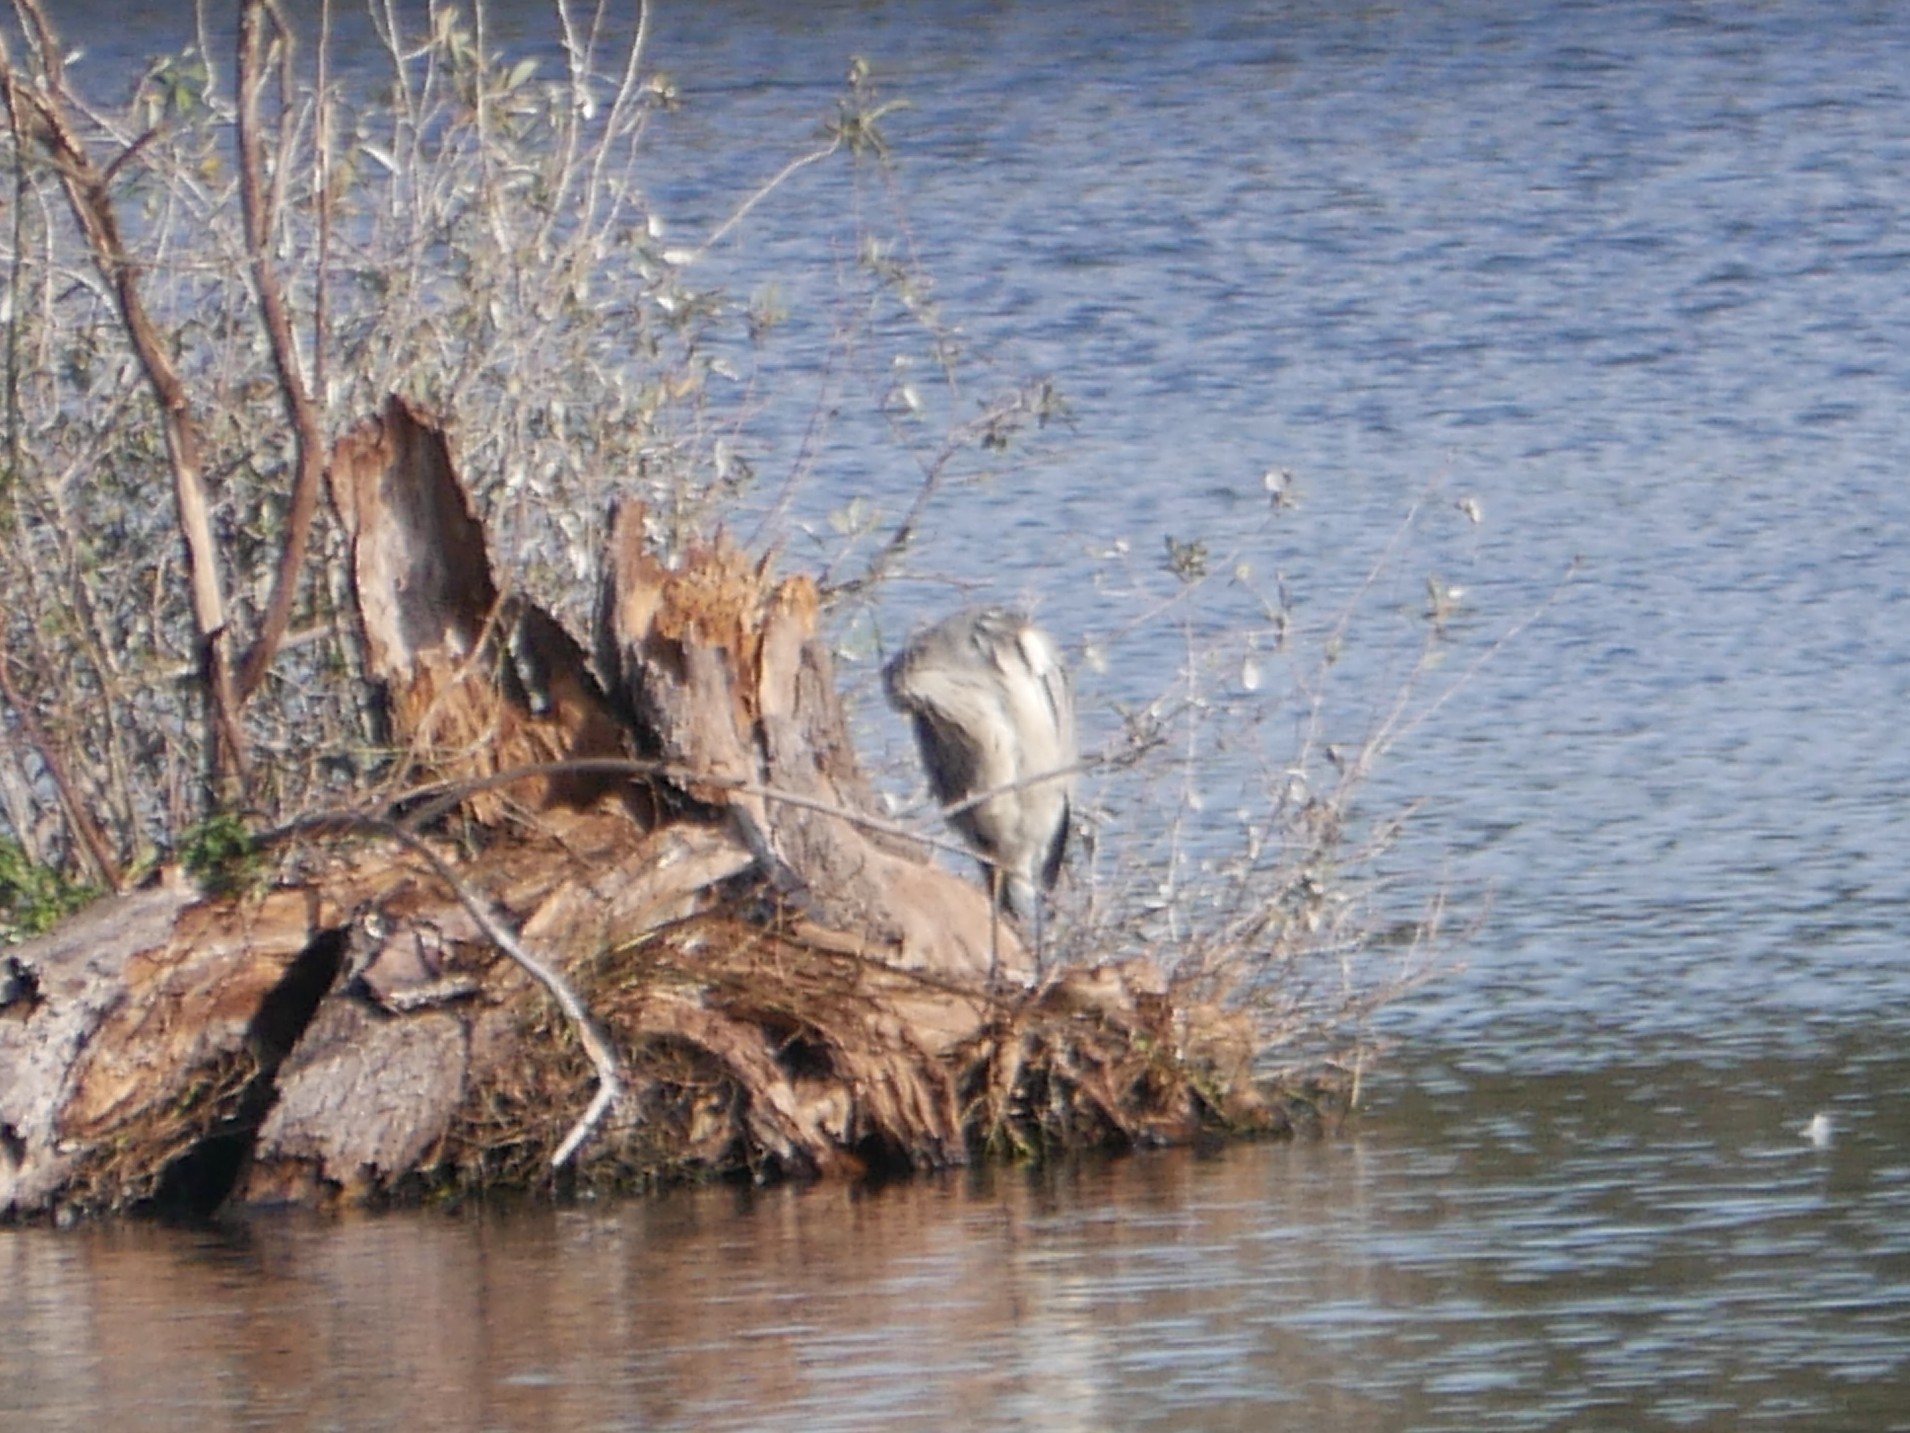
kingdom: Animalia
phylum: Chordata
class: Aves
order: Pelecaniformes
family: Ardeidae
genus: Ardea
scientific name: Ardea cinerea
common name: Grey heron
